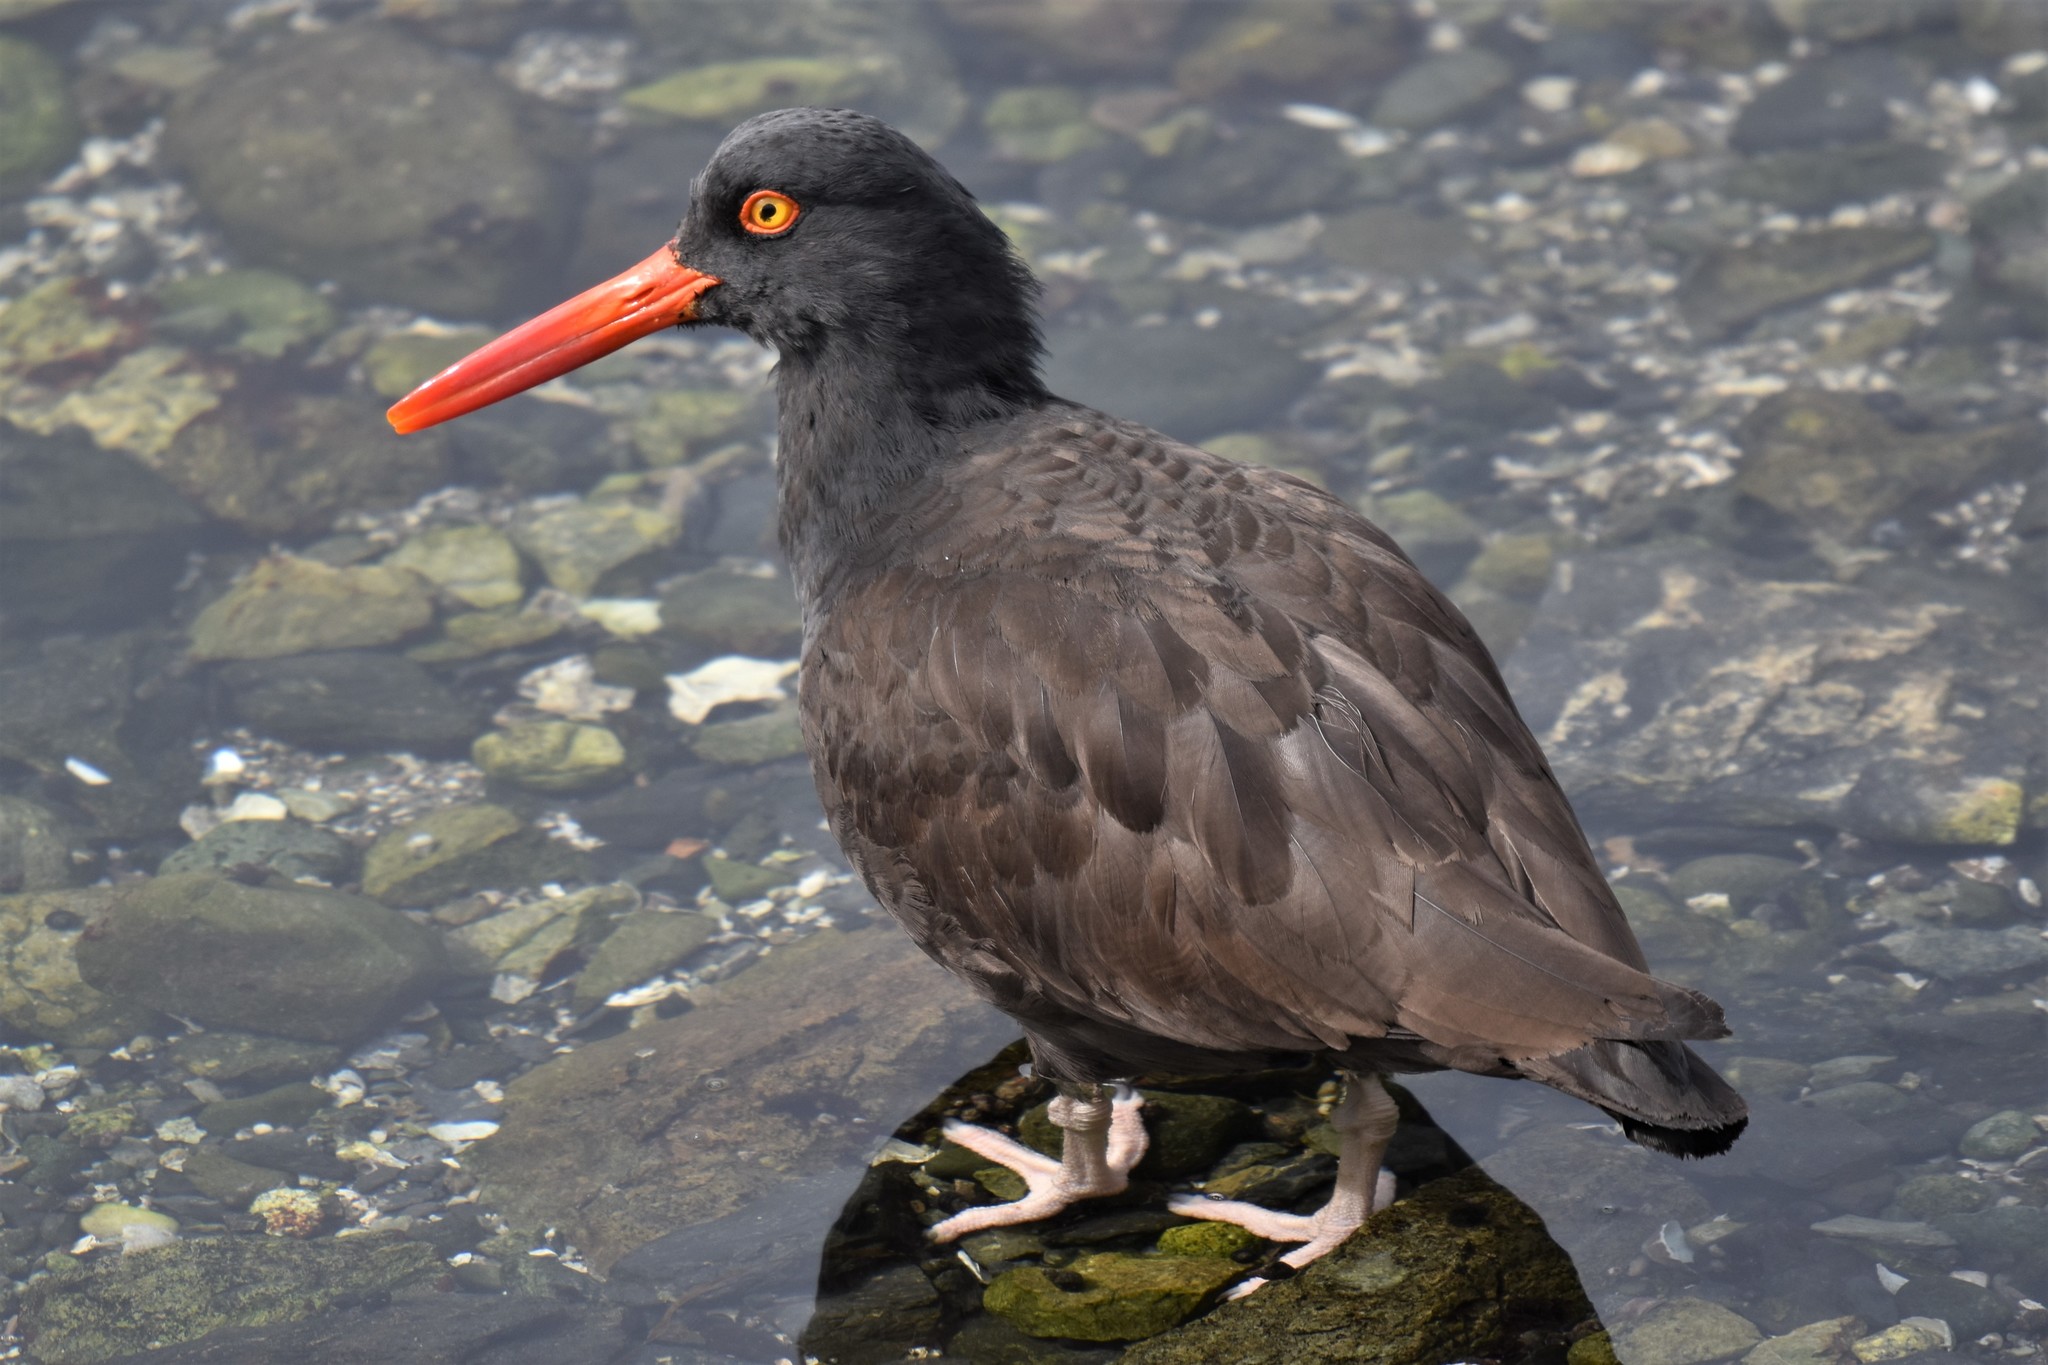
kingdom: Animalia
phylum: Chordata
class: Aves
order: Charadriiformes
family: Haematopodidae
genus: Haematopus
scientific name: Haematopus bachmani
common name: Black oystercatcher
